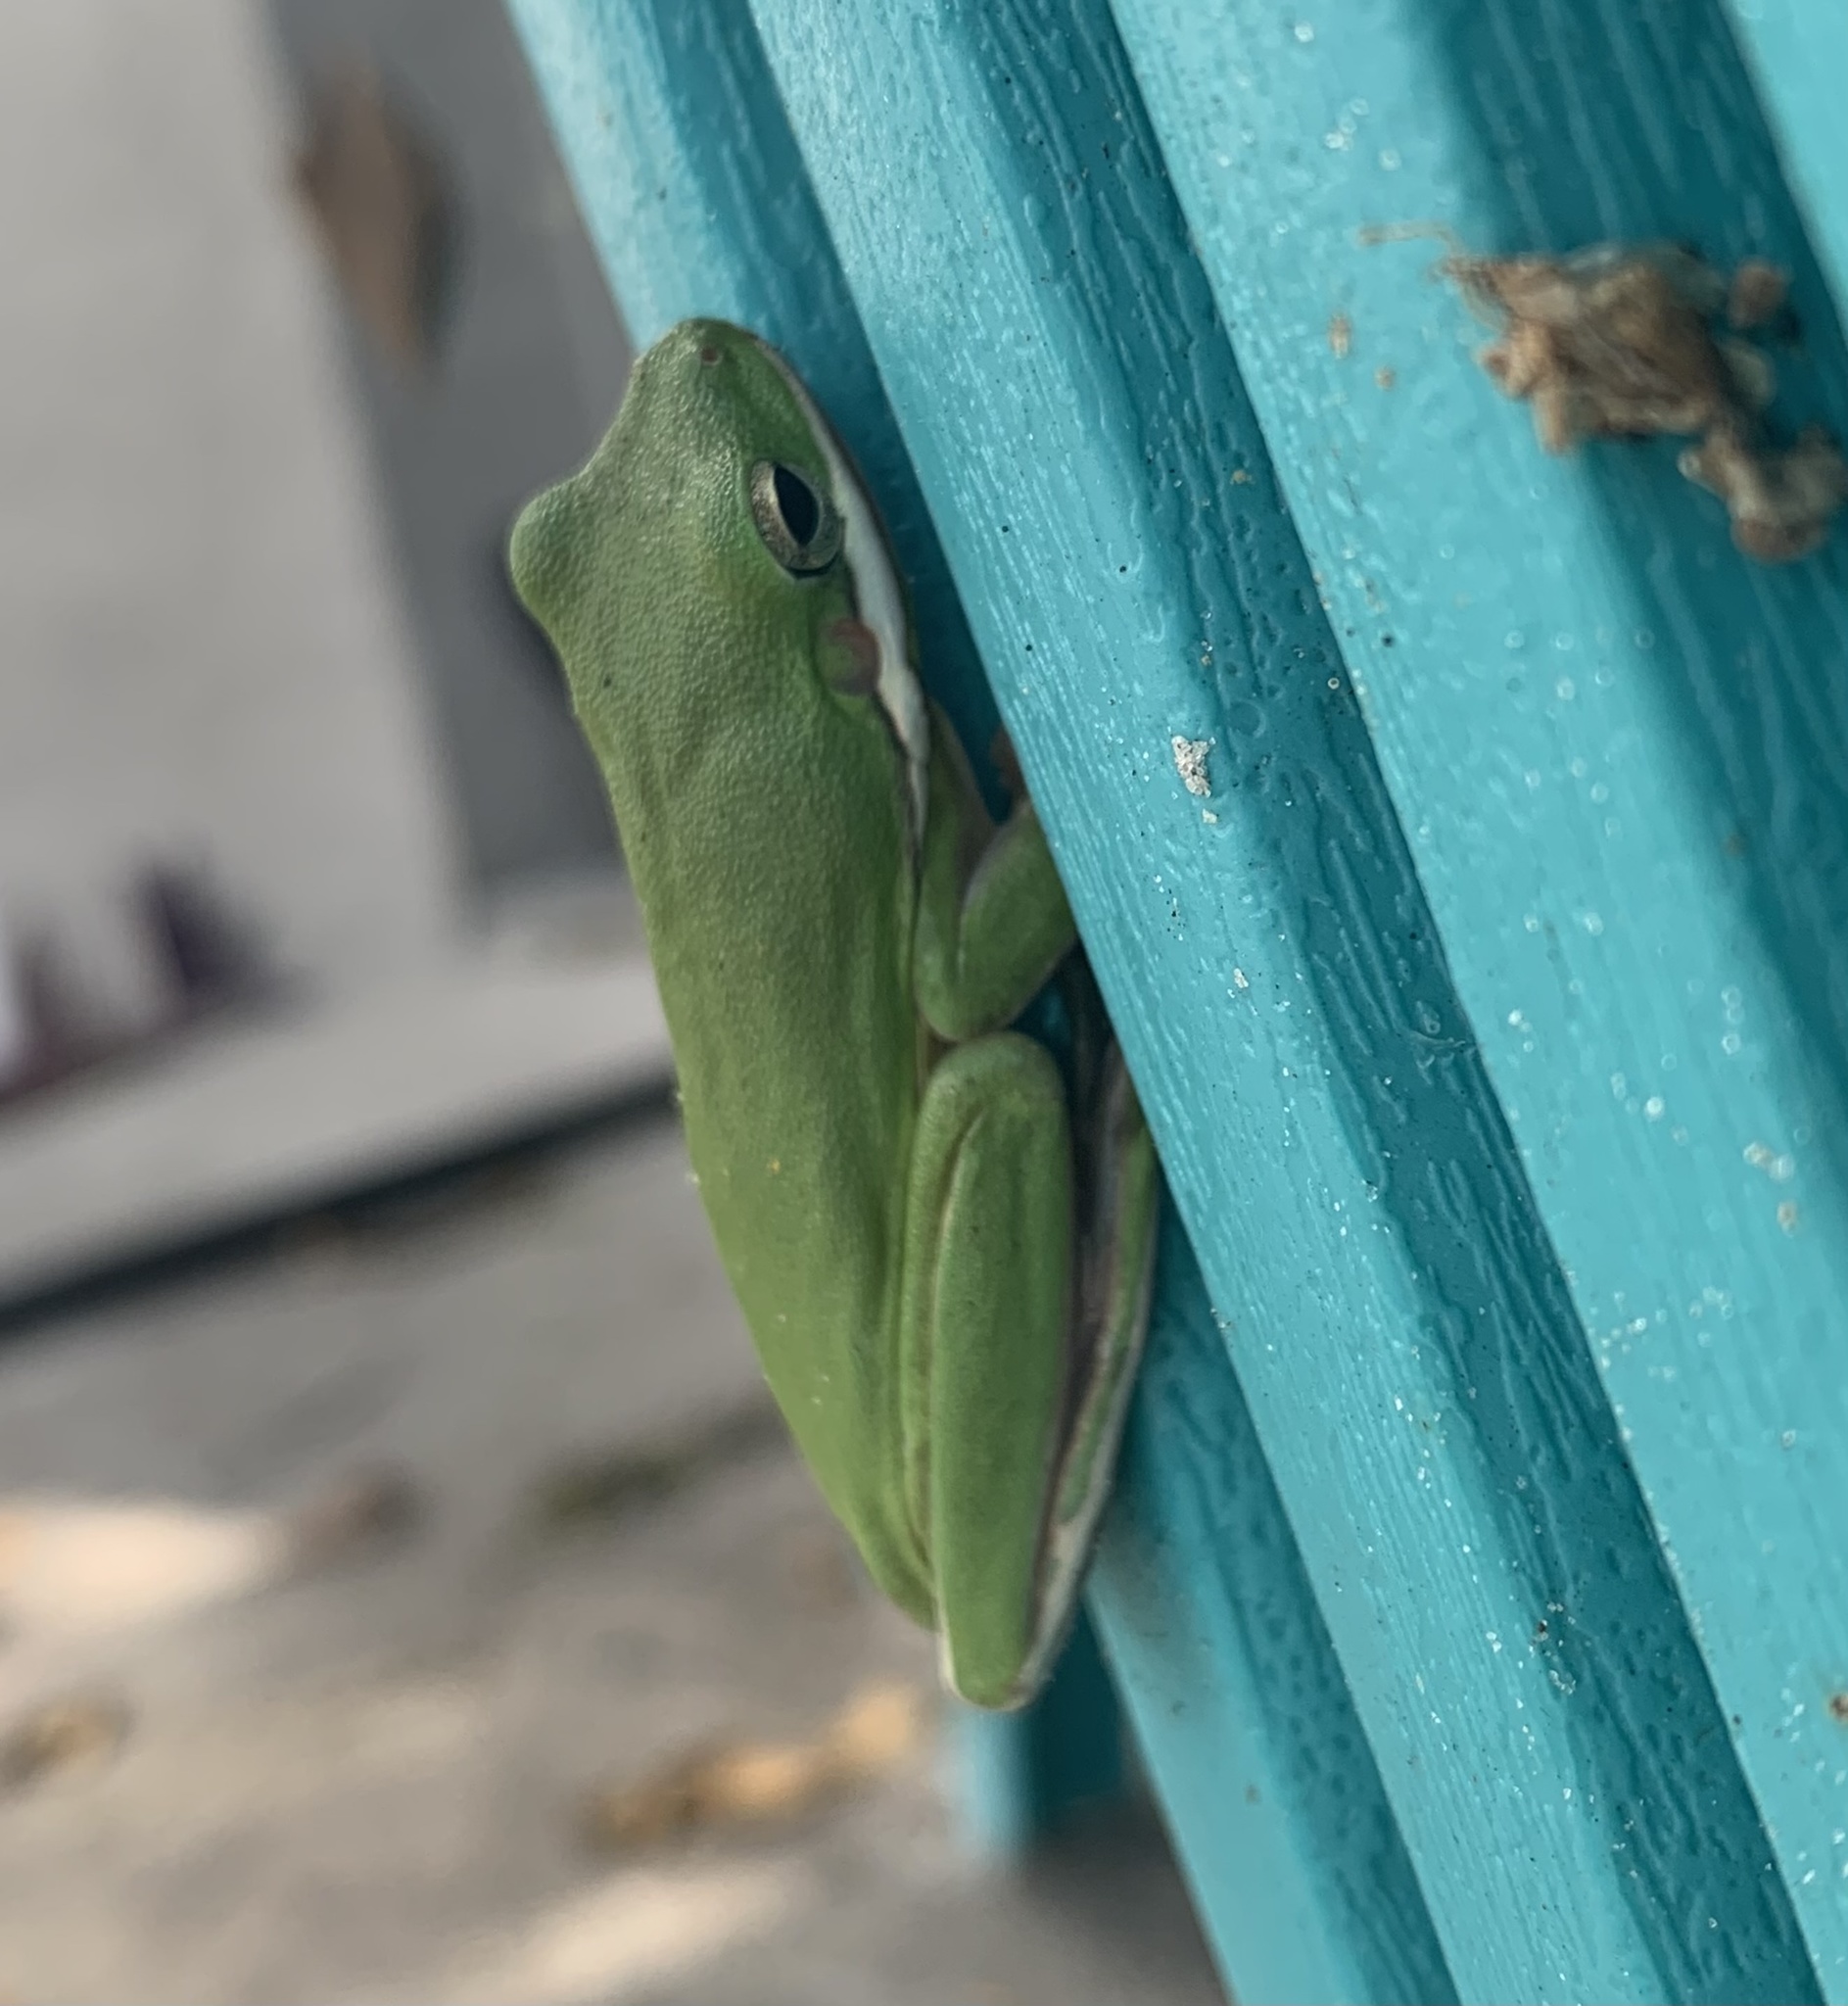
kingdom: Animalia
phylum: Chordata
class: Amphibia
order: Anura
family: Hylidae
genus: Dryophytes
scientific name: Dryophytes cinereus
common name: Green treefrog
